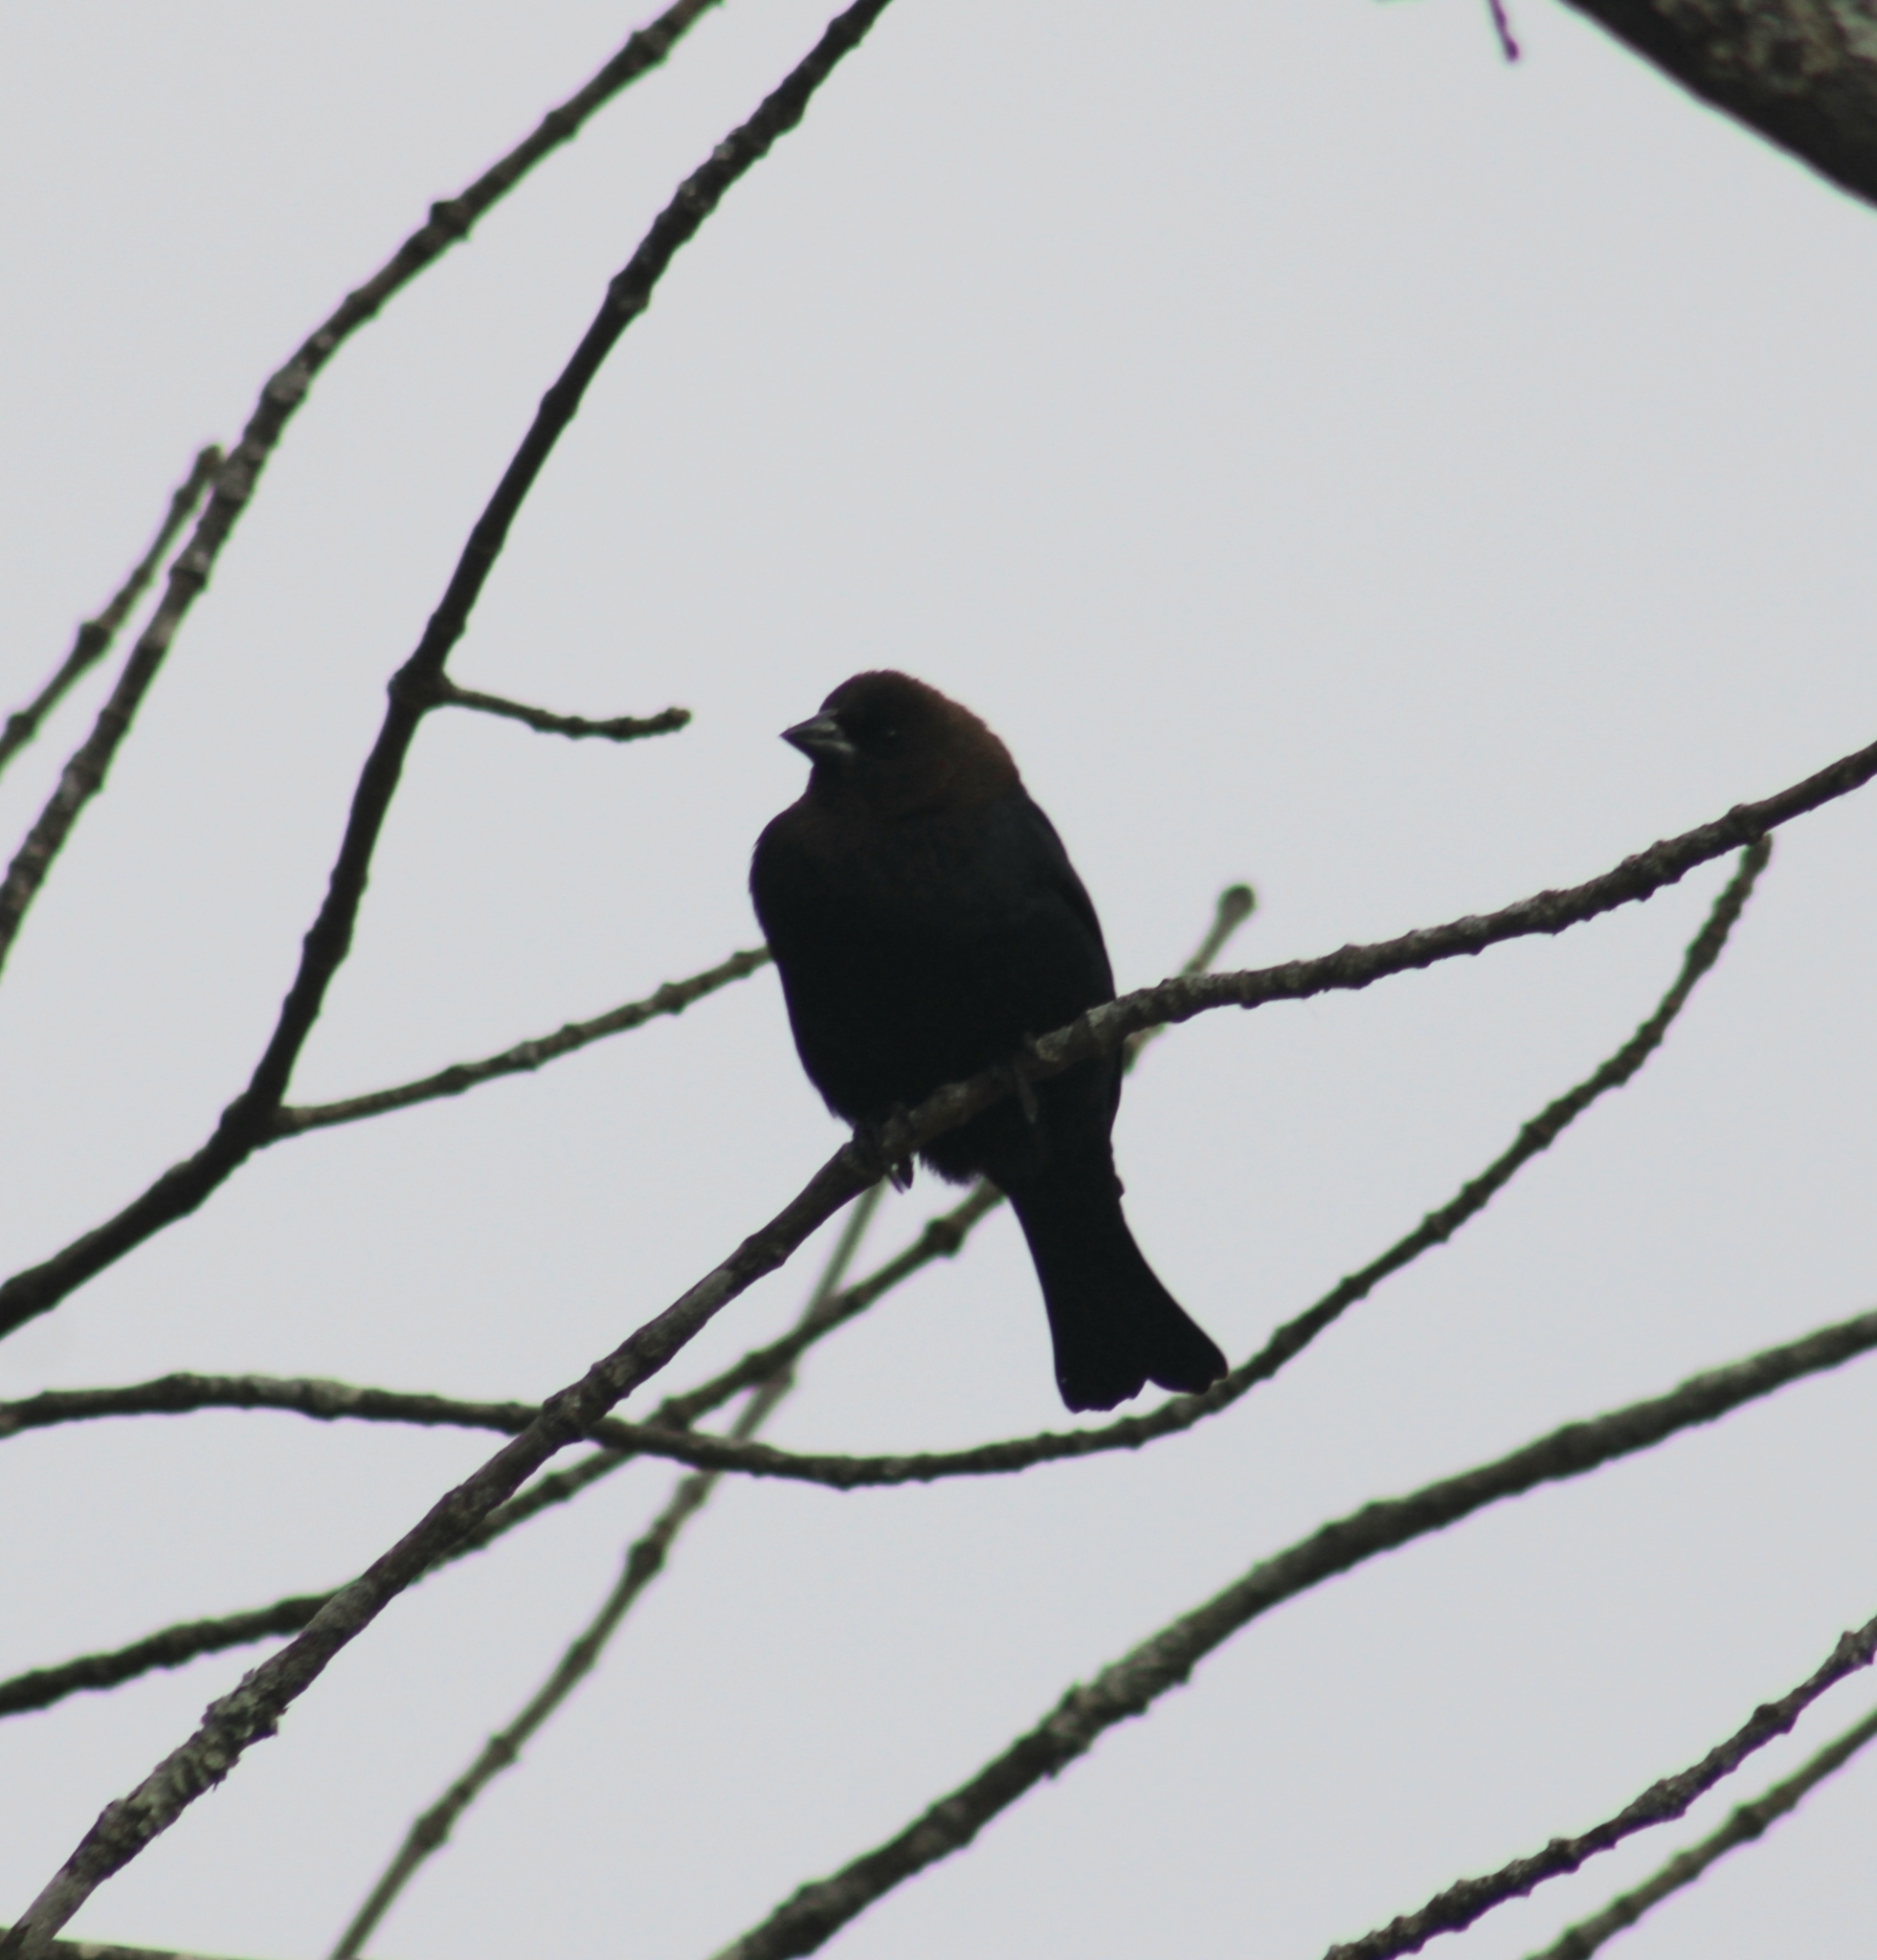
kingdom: Animalia
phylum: Chordata
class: Aves
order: Passeriformes
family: Icteridae
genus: Molothrus
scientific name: Molothrus ater
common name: Brown-headed cowbird
